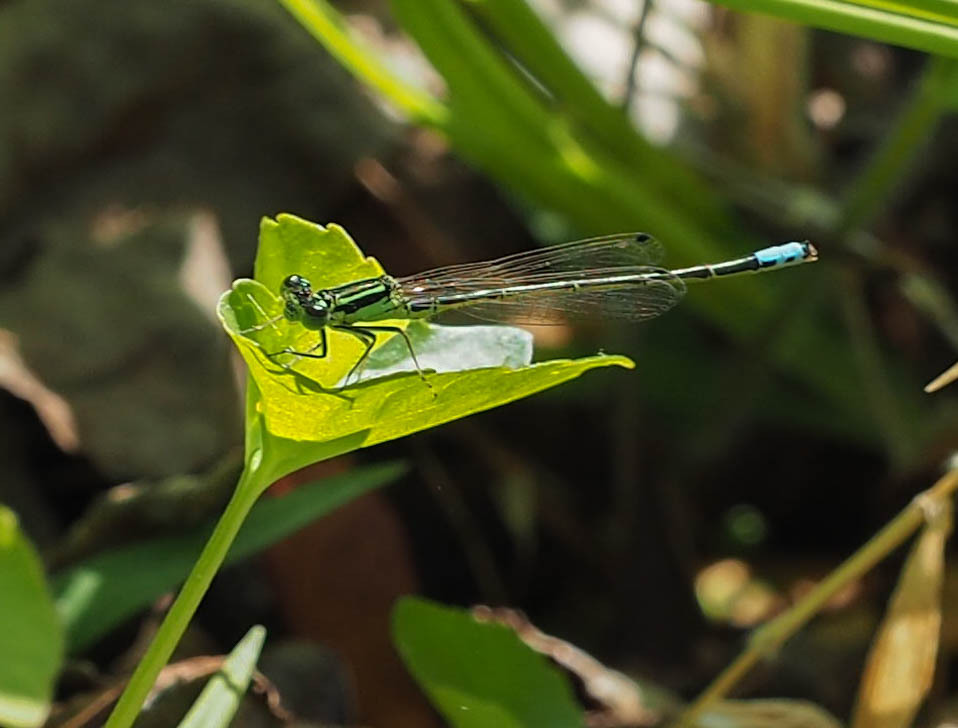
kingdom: Animalia
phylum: Arthropoda
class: Insecta
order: Odonata
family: Coenagrionidae
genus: Ischnura
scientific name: Ischnura verticalis
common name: Eastern forktail
